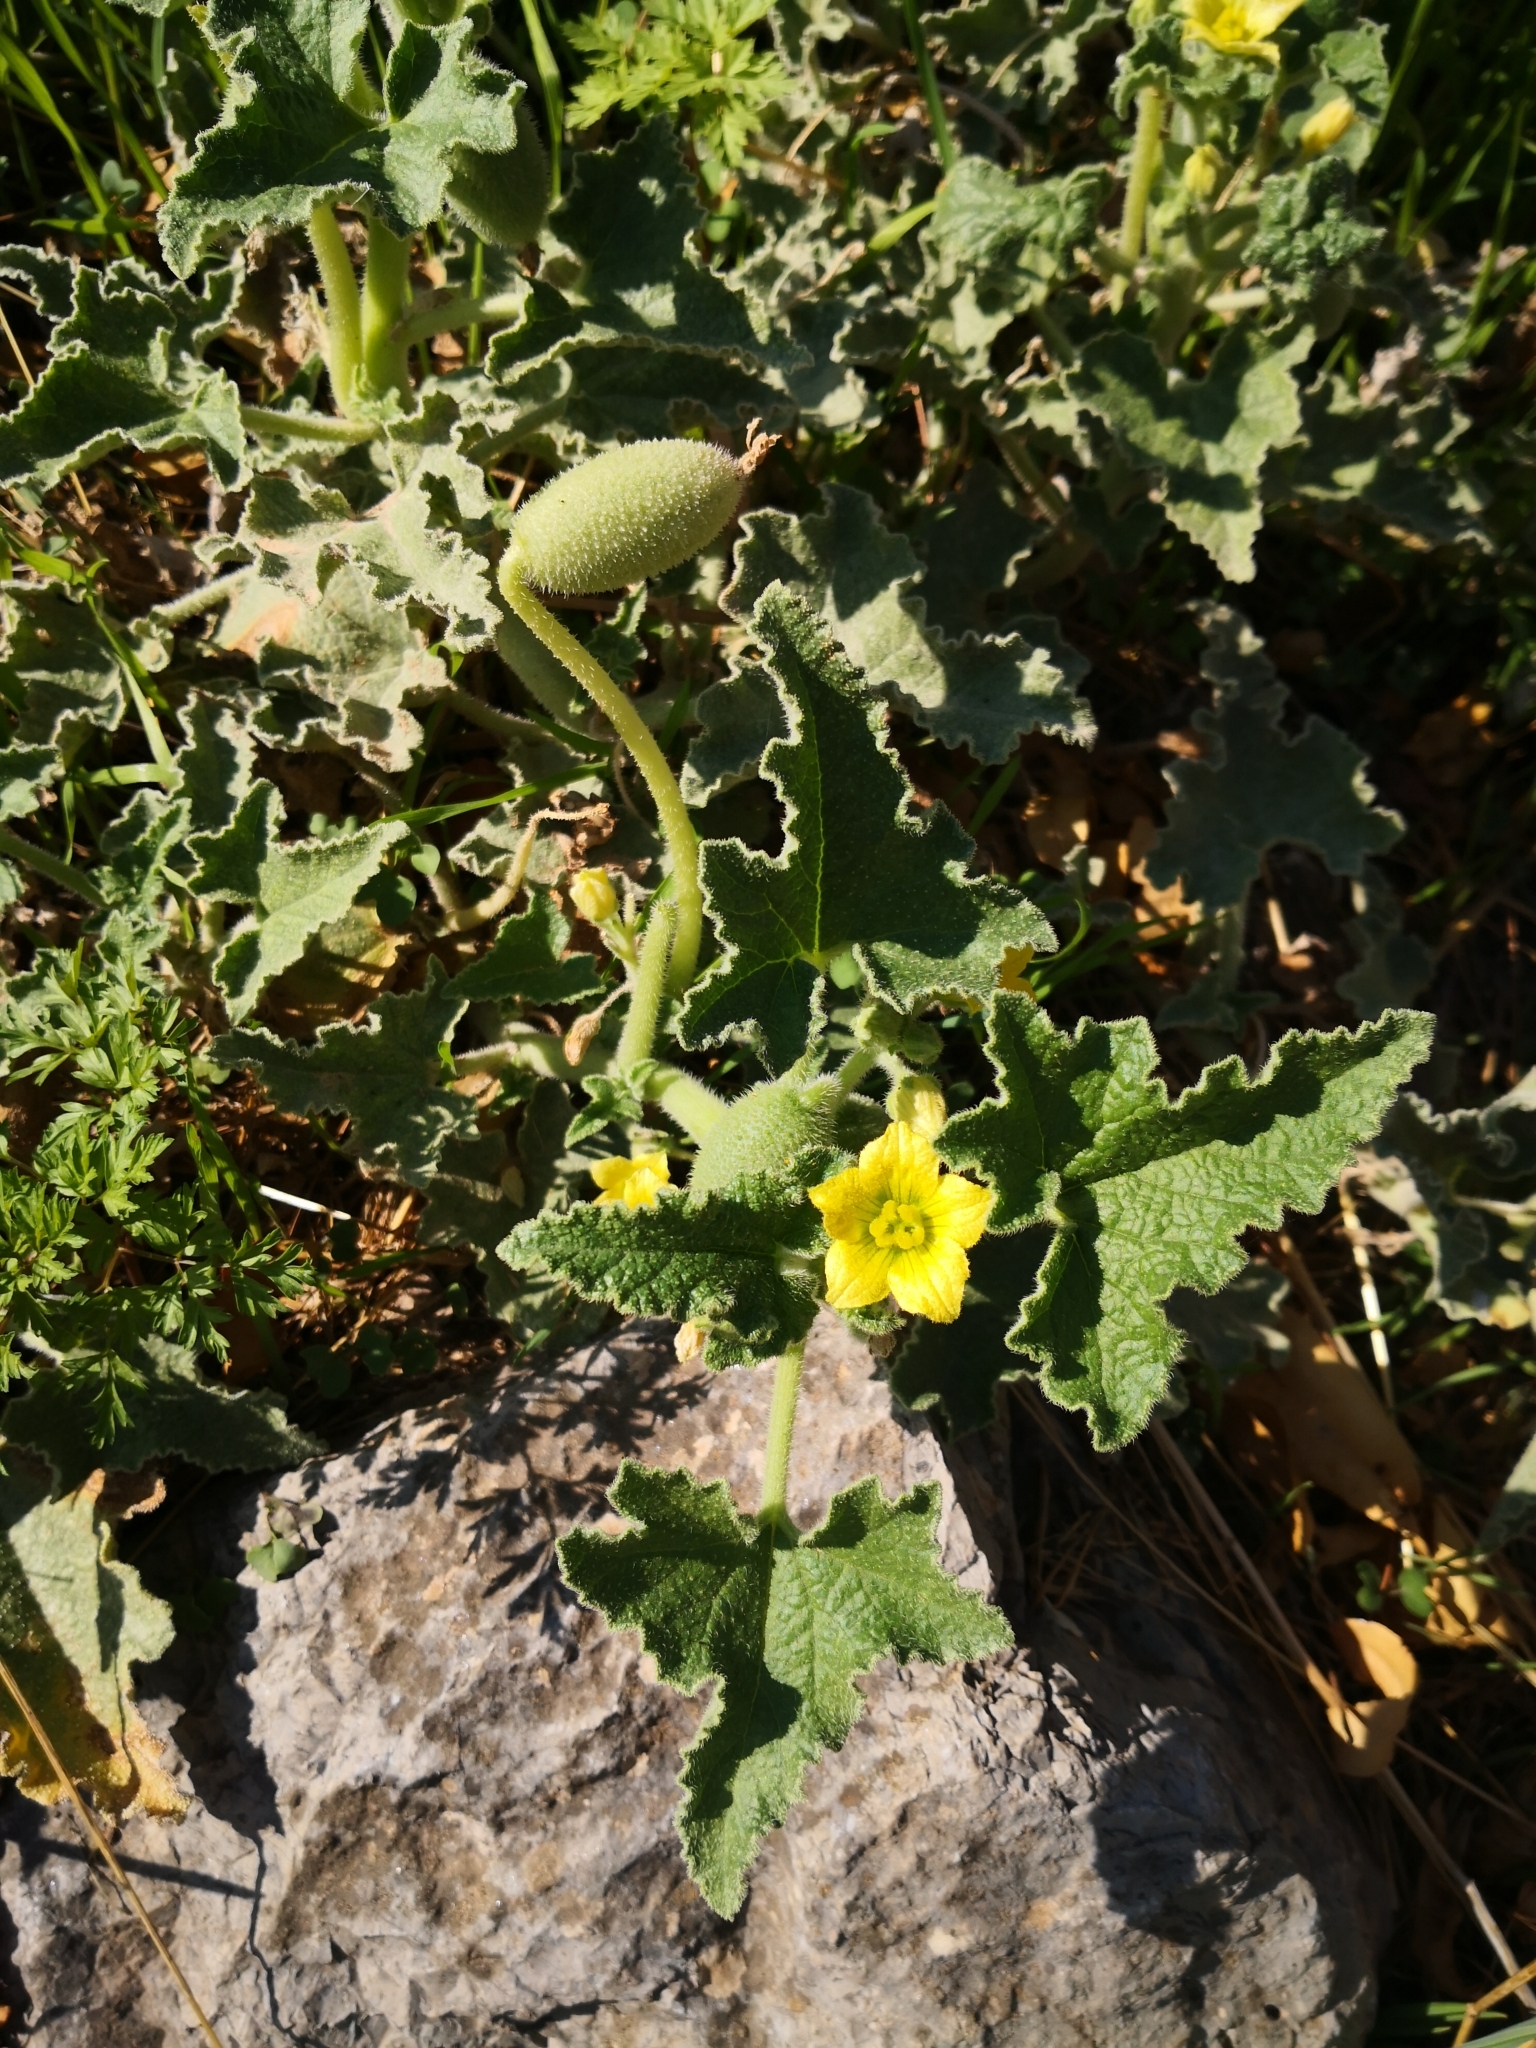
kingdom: Plantae
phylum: Tracheophyta
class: Magnoliopsida
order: Cucurbitales
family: Cucurbitaceae
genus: Ecballium
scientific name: Ecballium elaterium
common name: Squirting cucumber
